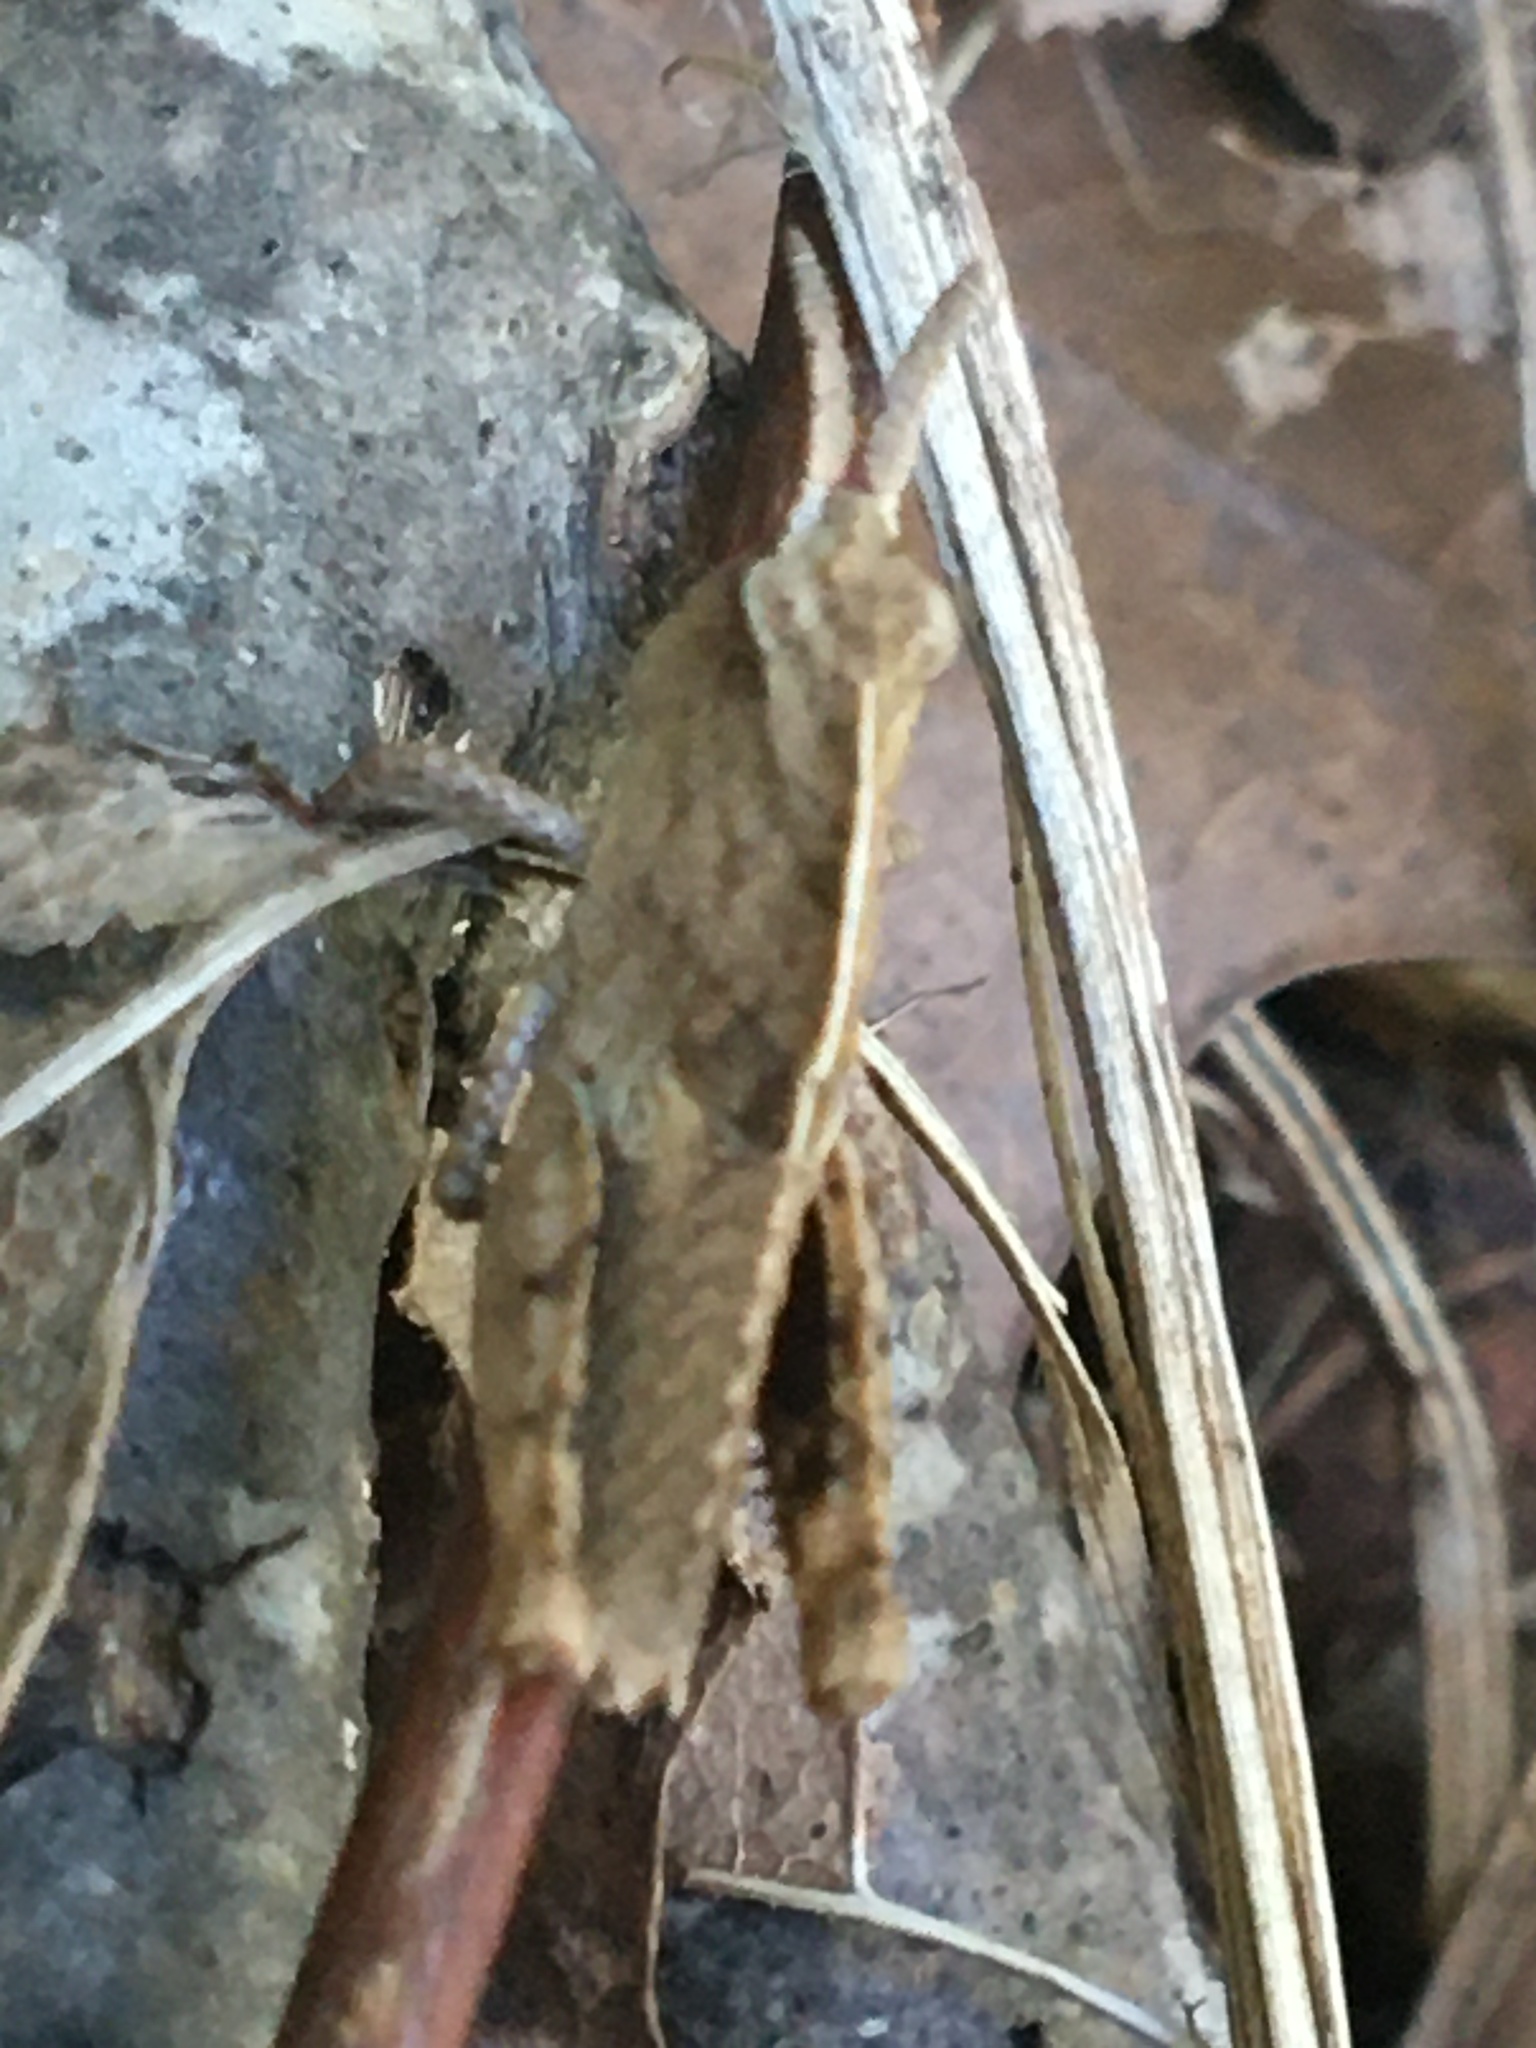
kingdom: Animalia
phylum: Arthropoda
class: Insecta
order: Orthoptera
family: Acrididae
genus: Chortophaga
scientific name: Chortophaga viridifasciata
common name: Green-striped grasshopper
